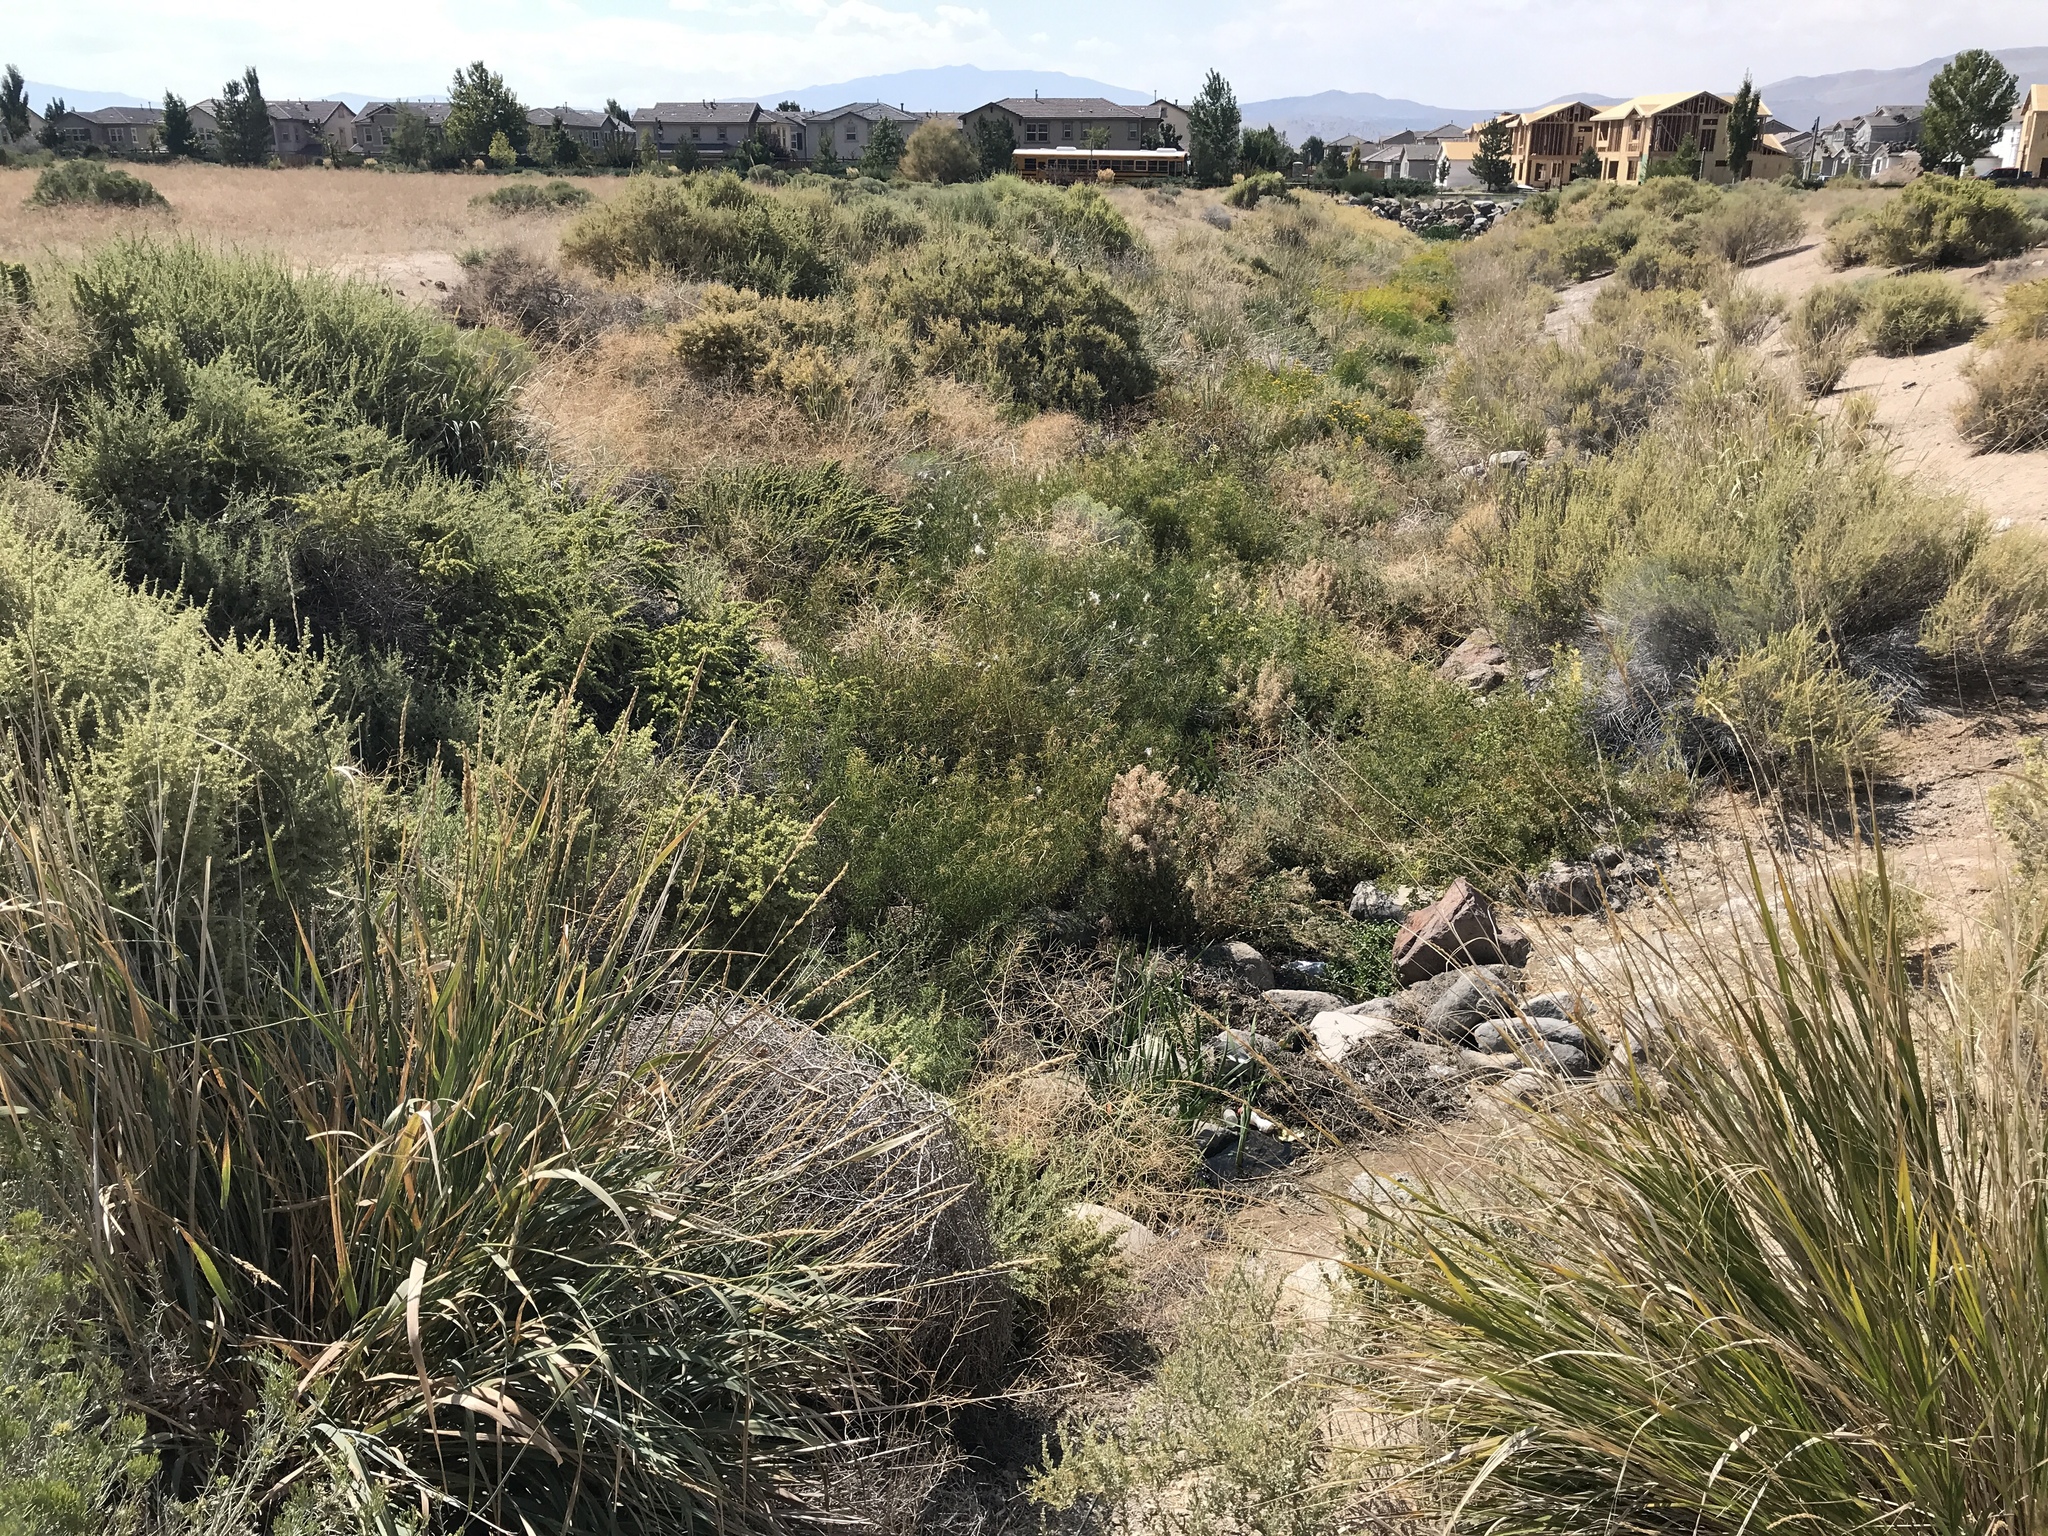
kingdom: Plantae
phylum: Tracheophyta
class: Magnoliopsida
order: Gentianales
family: Apocynaceae
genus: Asclepias
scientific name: Asclepias fascicularis
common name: Mexican milkweed
